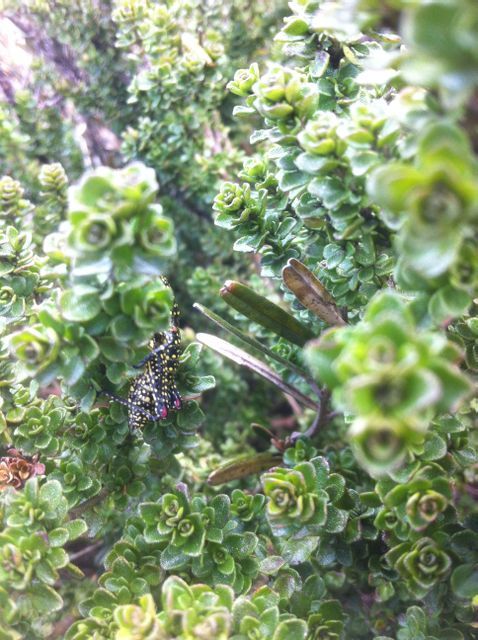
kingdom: Animalia
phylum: Arthropoda
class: Insecta
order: Orthoptera
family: Pyrgomorphidae
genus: Monistria
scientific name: Monistria concinna
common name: Southern pyrgomorph
